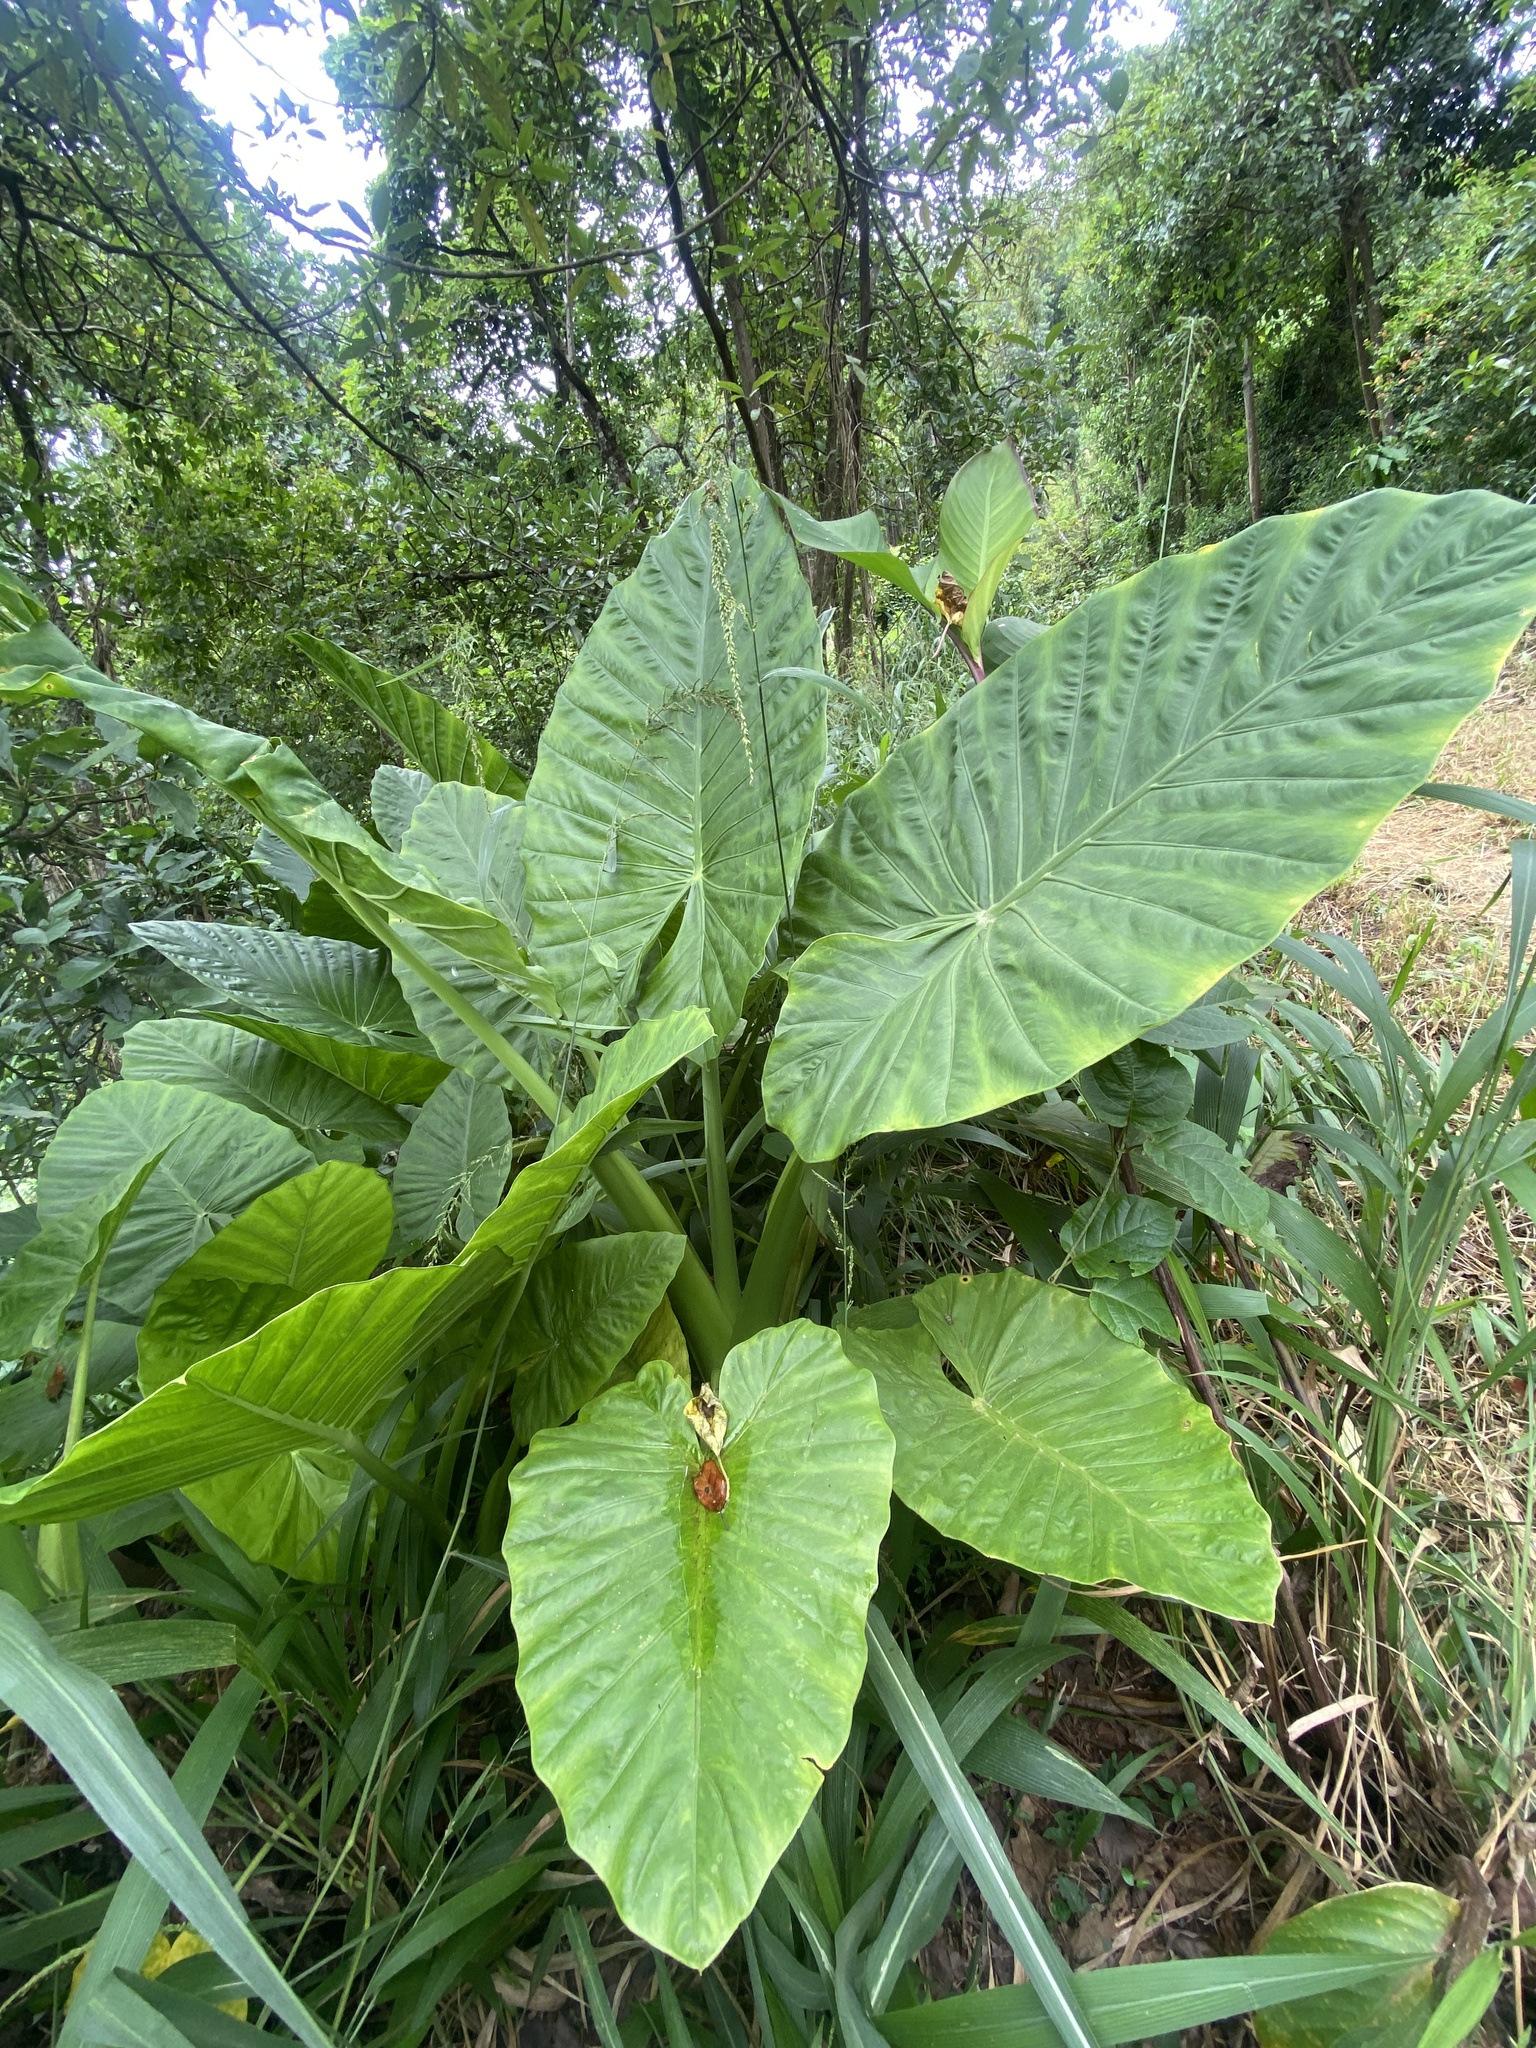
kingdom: Plantae
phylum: Tracheophyta
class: Liliopsida
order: Alismatales
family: Araceae
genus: Alocasia
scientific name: Alocasia macrorrhizos
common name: Giant taro
